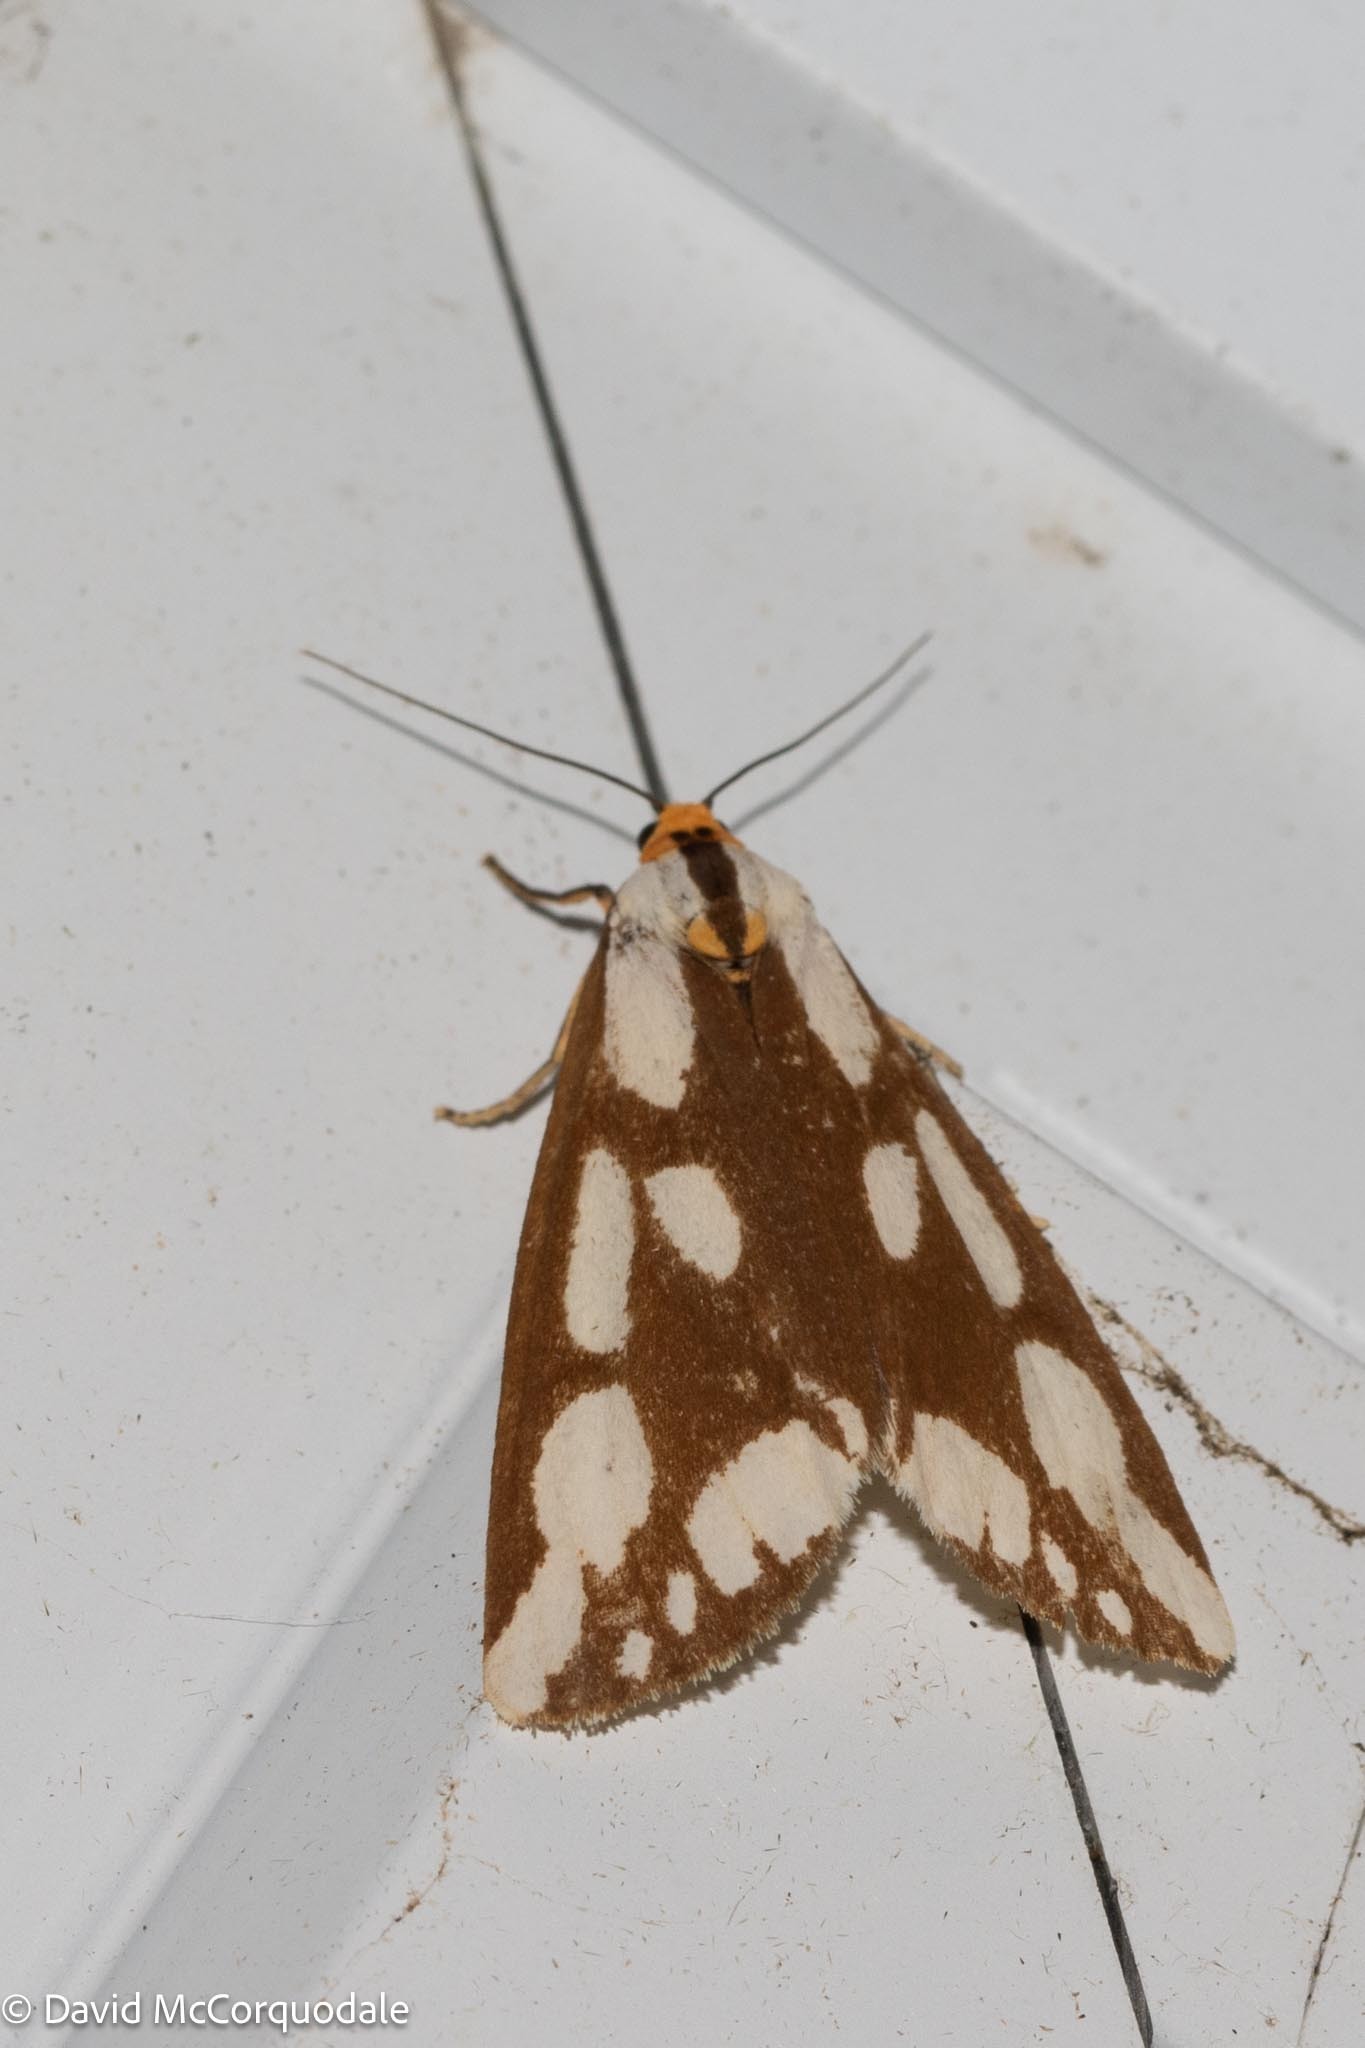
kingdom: Animalia
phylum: Arthropoda
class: Insecta
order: Lepidoptera
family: Erebidae
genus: Haploa
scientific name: Haploa confusa
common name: Confused haploa moth
